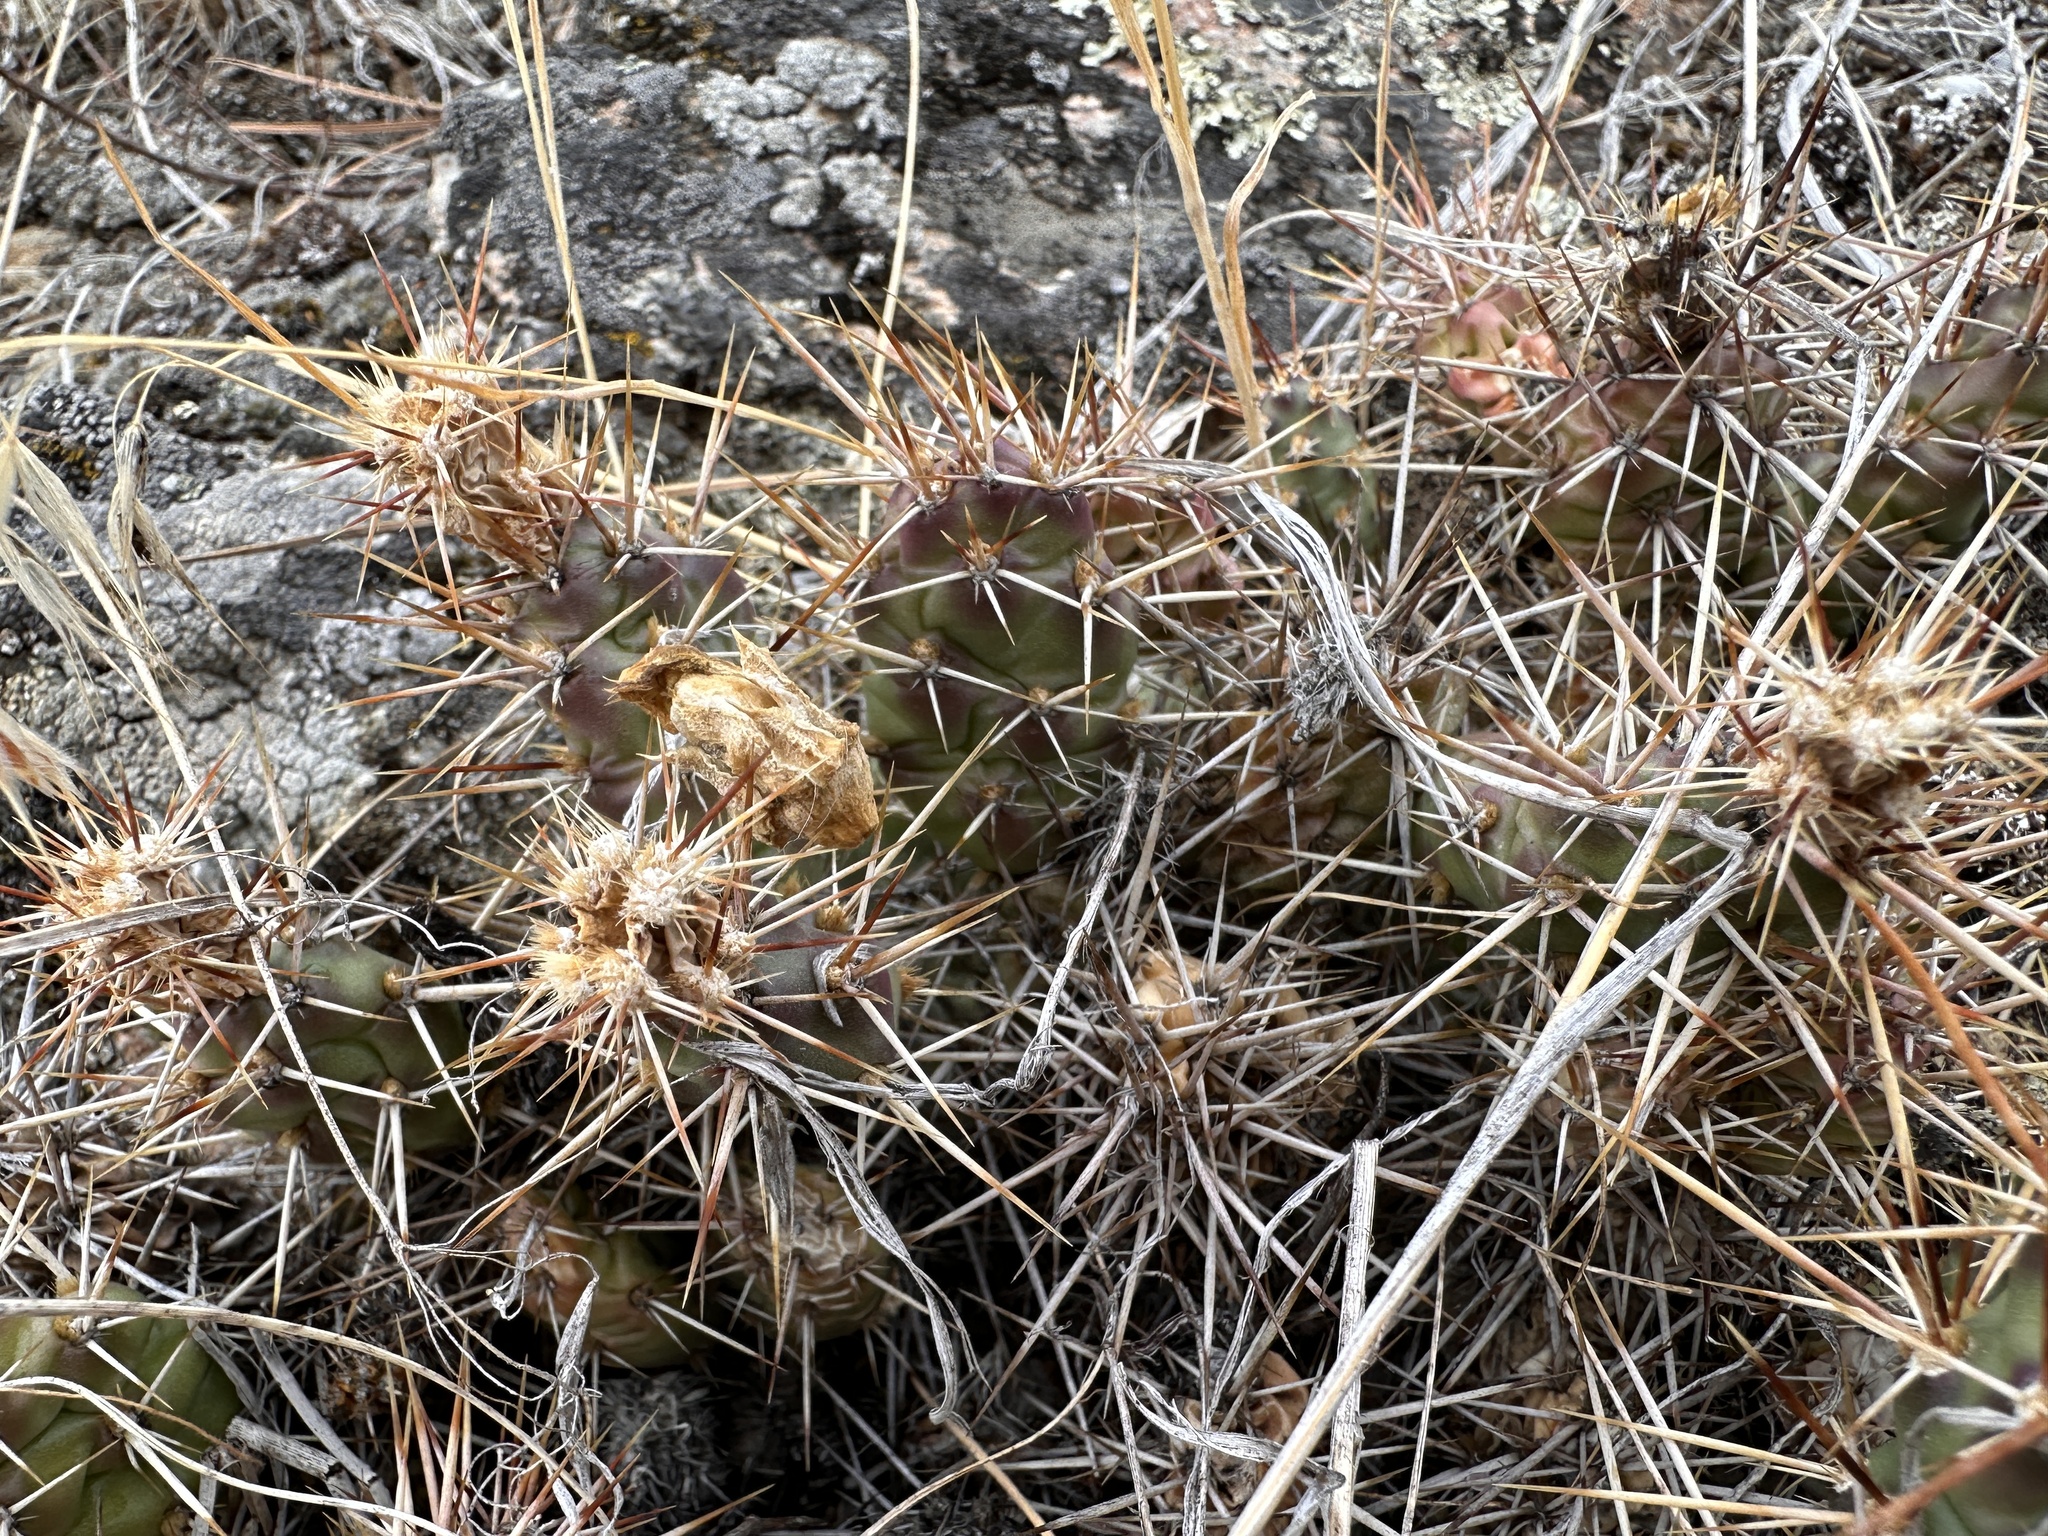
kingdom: Plantae
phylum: Tracheophyta
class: Magnoliopsida
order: Caryophyllales
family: Cactaceae
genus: Opuntia
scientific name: Opuntia fragilis
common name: Brittle cactus
